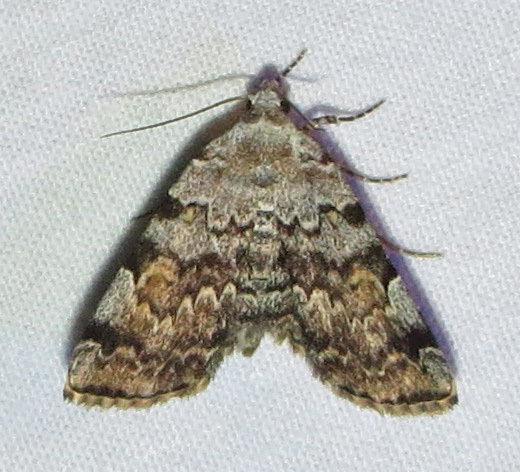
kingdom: Animalia
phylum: Arthropoda
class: Insecta
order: Lepidoptera
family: Erebidae
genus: Idia
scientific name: Idia americalis
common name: American idia moth
